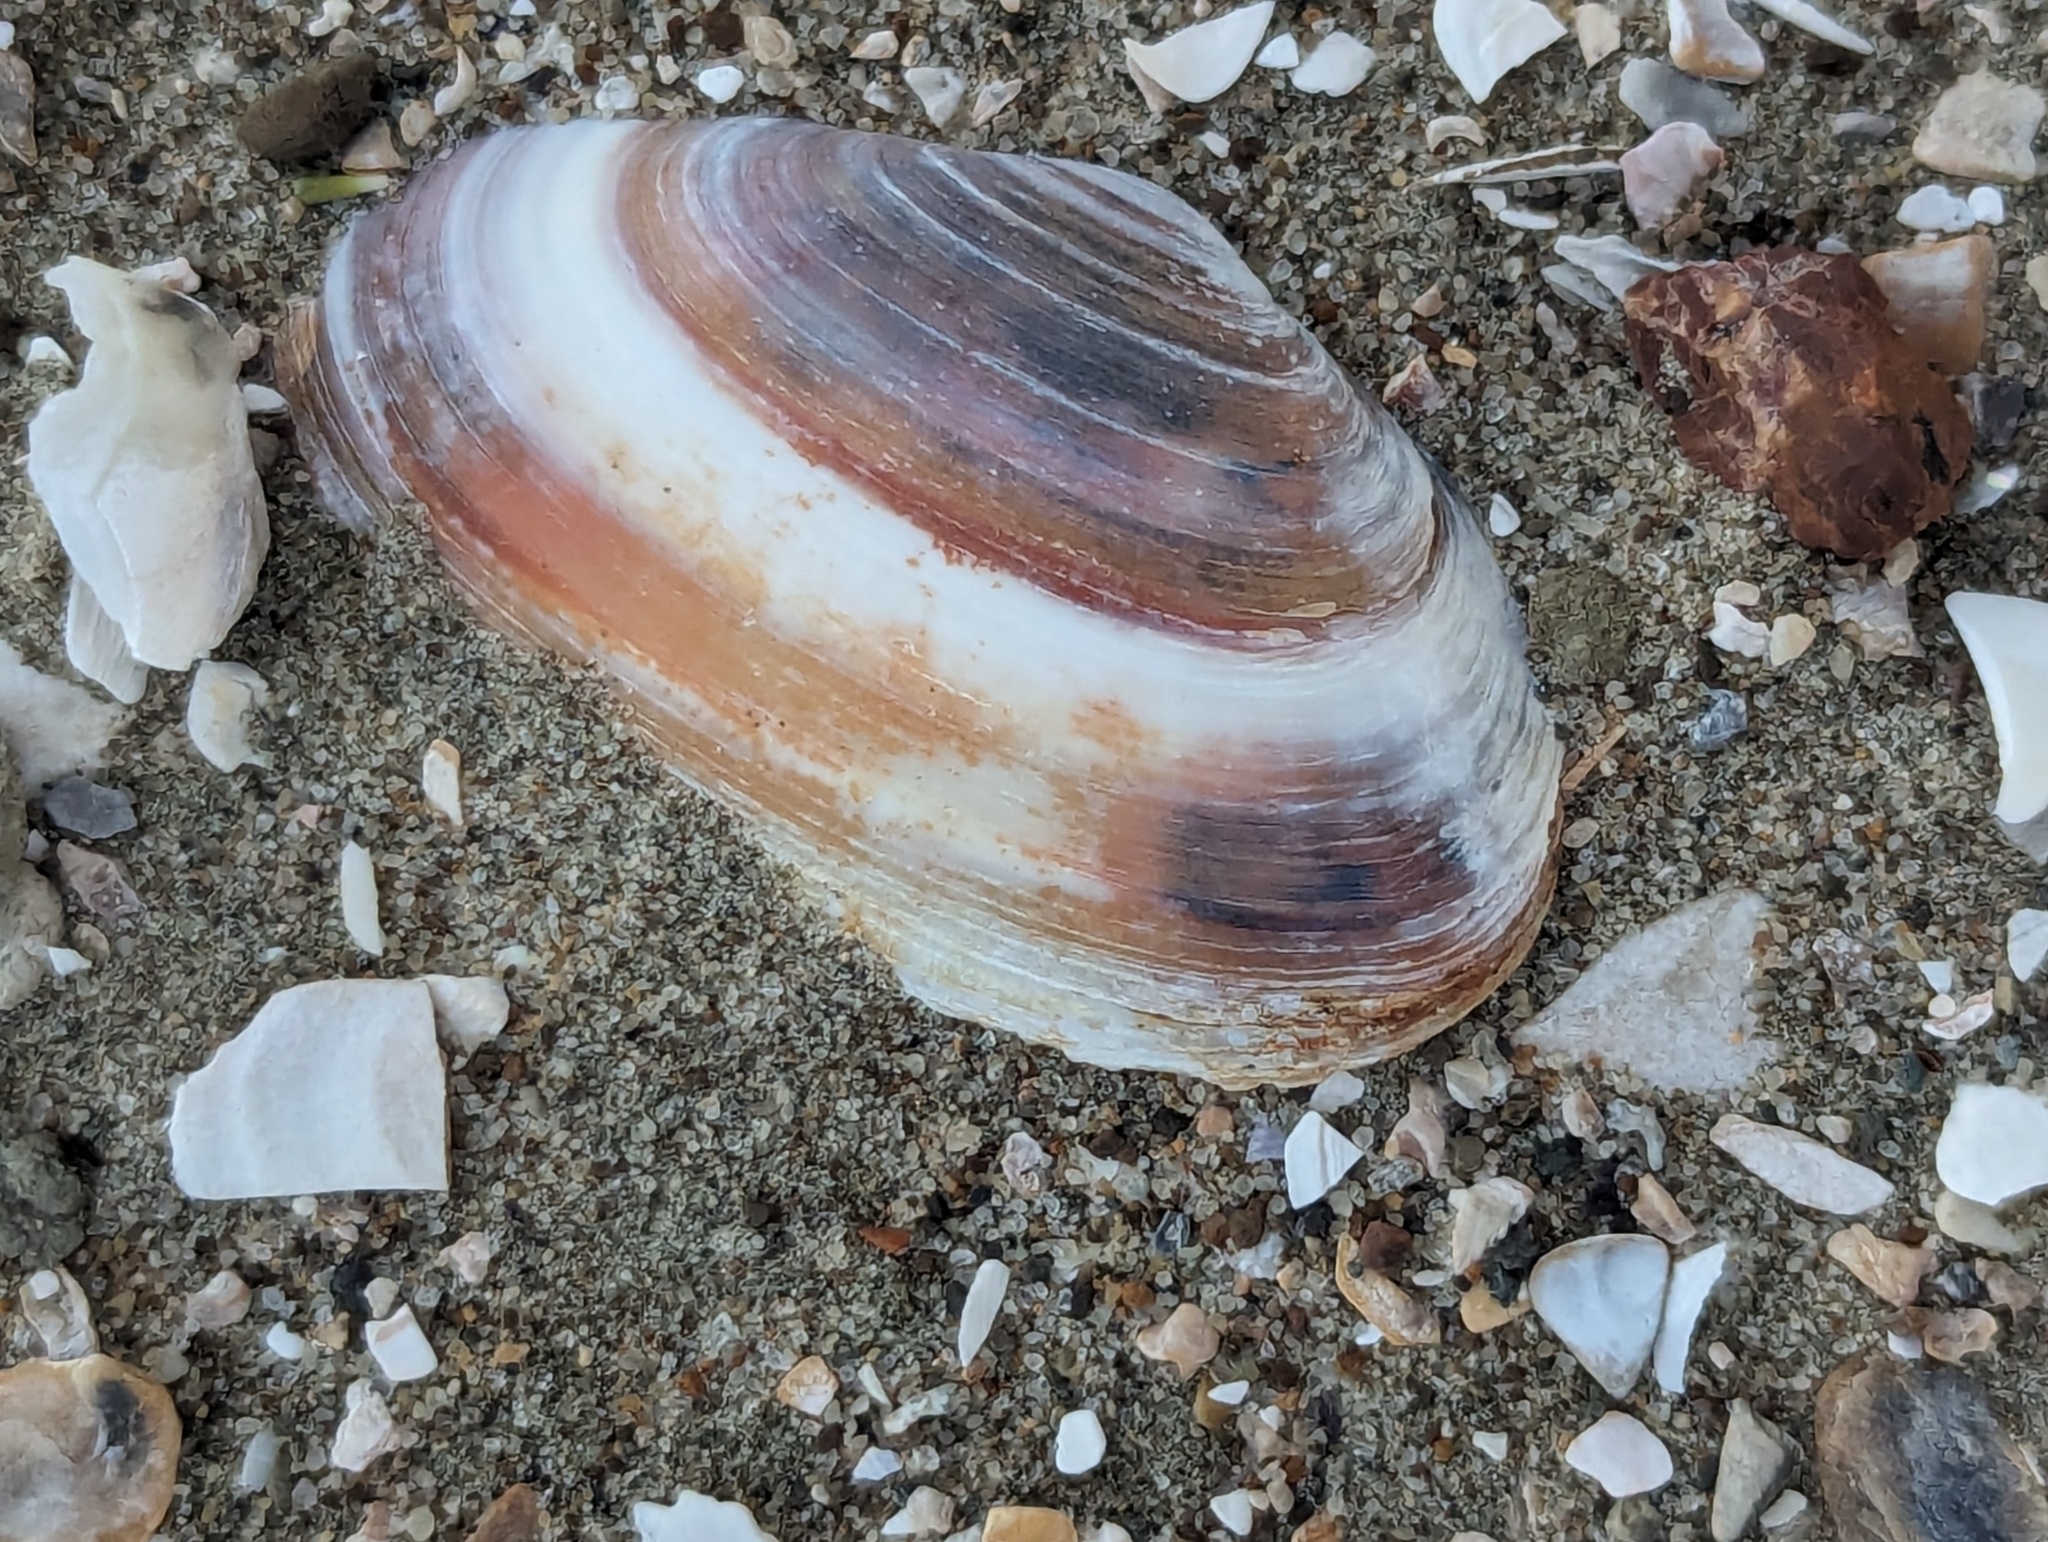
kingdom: Animalia
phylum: Mollusca
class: Bivalvia
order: Venerida
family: Mesodesmatidae
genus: Paphies
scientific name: Paphies australis
